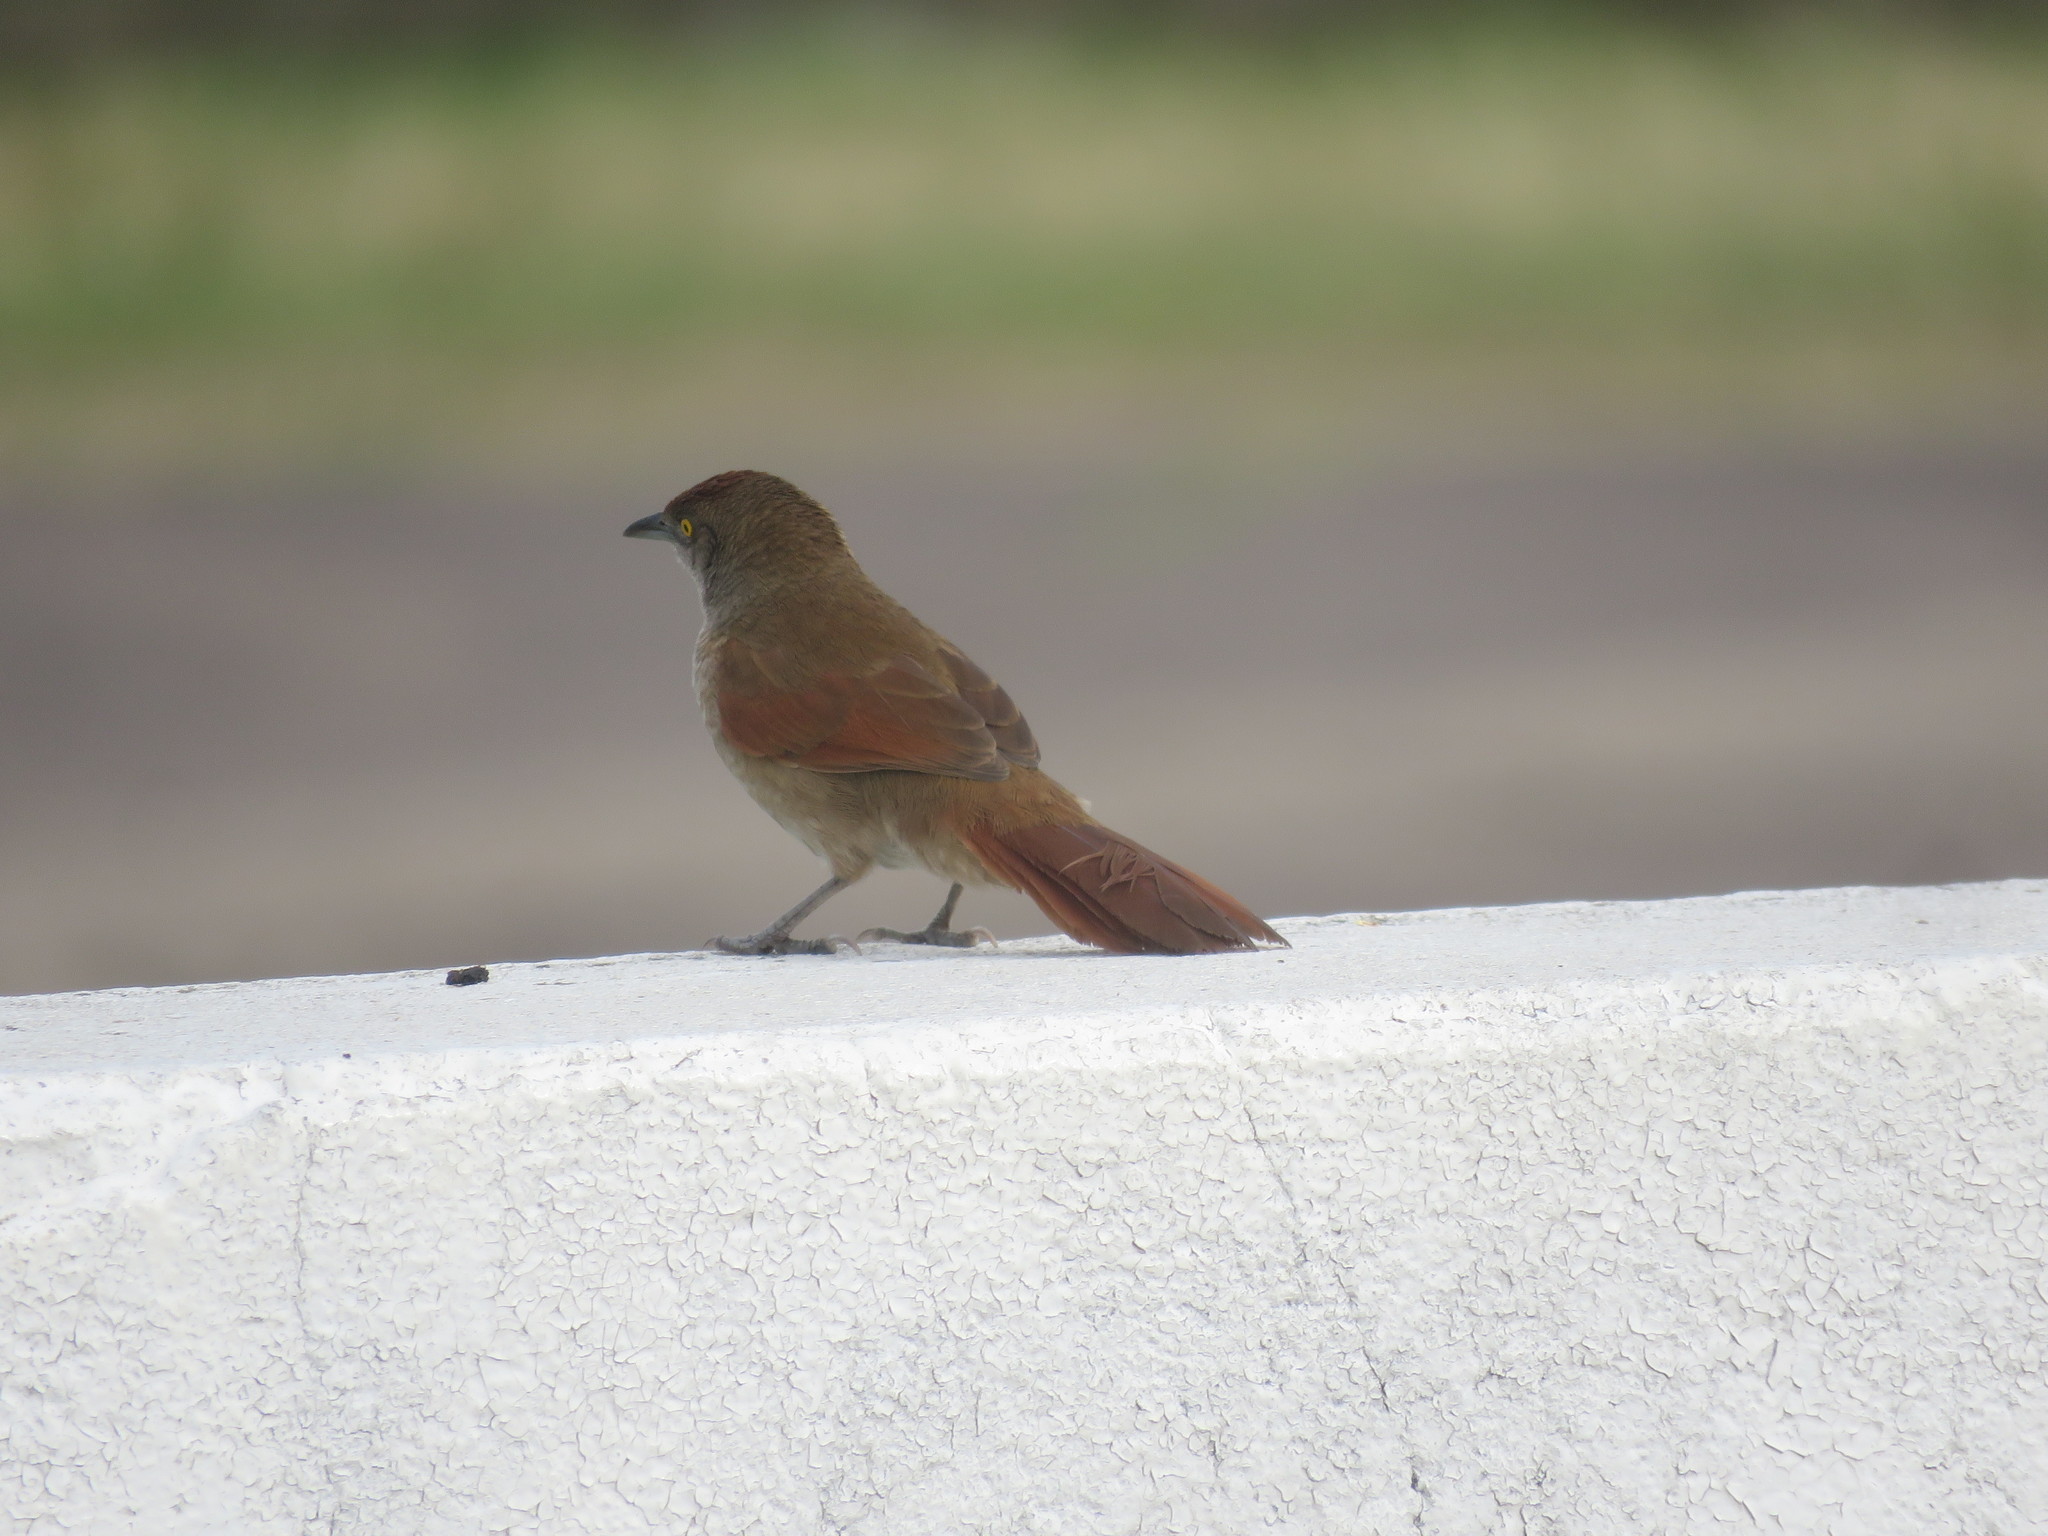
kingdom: Animalia
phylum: Chordata
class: Aves
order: Passeriformes
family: Furnariidae
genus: Phacellodomus
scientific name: Phacellodomus ruber
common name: Greater thornbird
